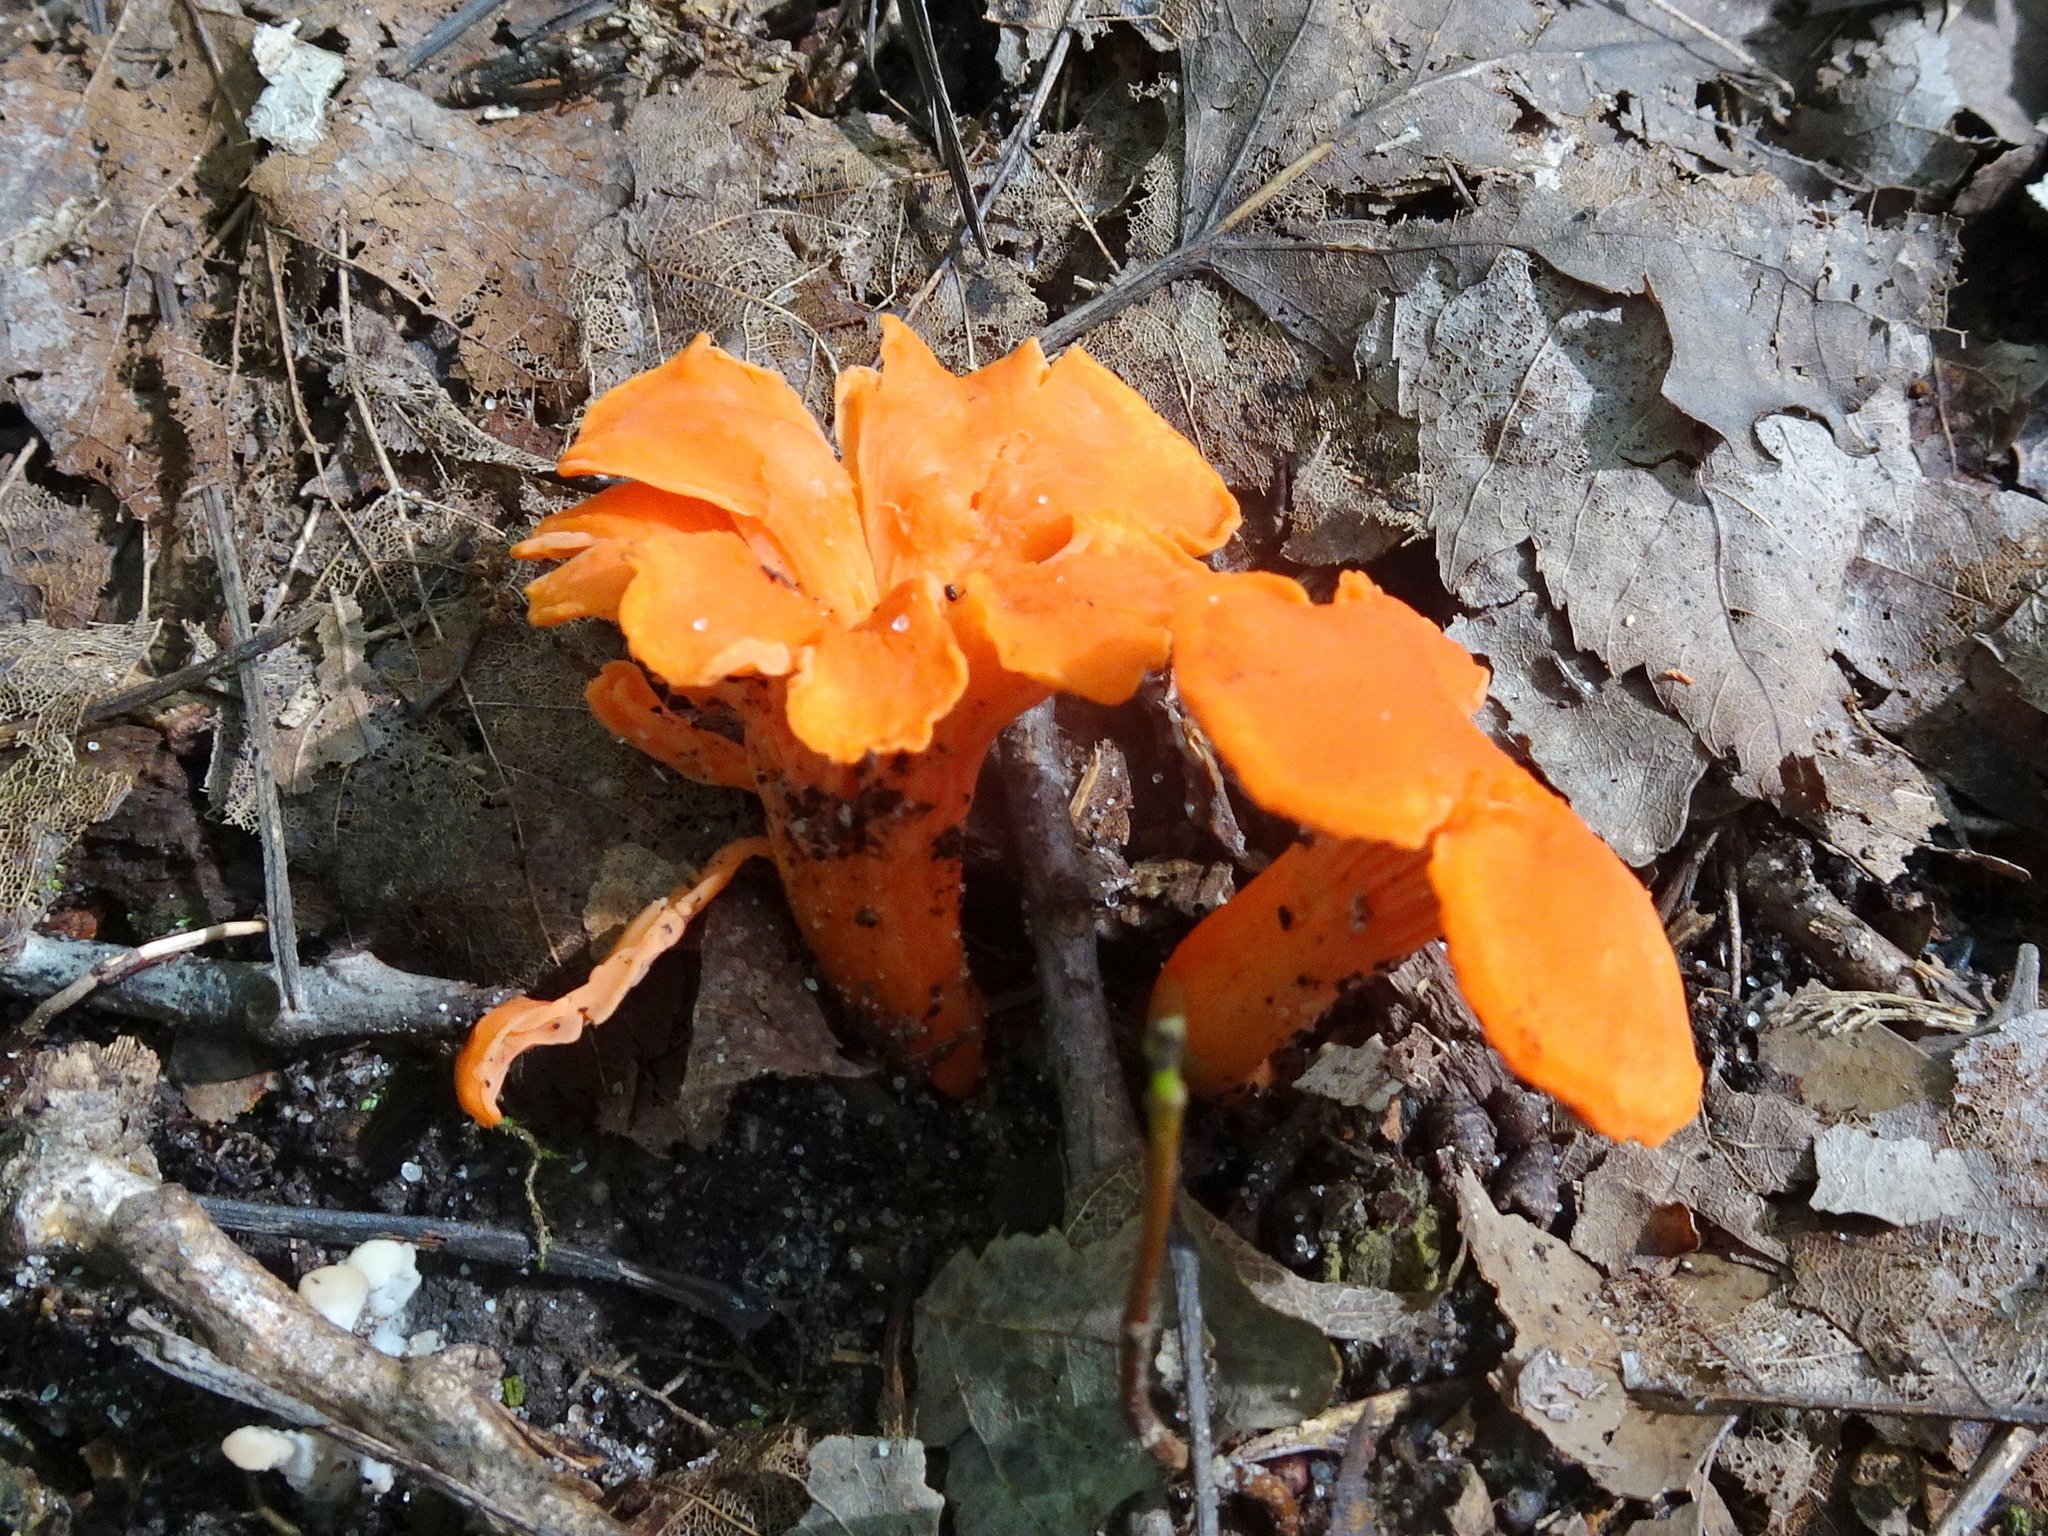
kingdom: Fungi
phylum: Basidiomycota
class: Agaricomycetes
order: Cantharellales
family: Hydnaceae
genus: Cantharellus
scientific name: Cantharellus cinnabarinus
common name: Cinnabar chanterelle
